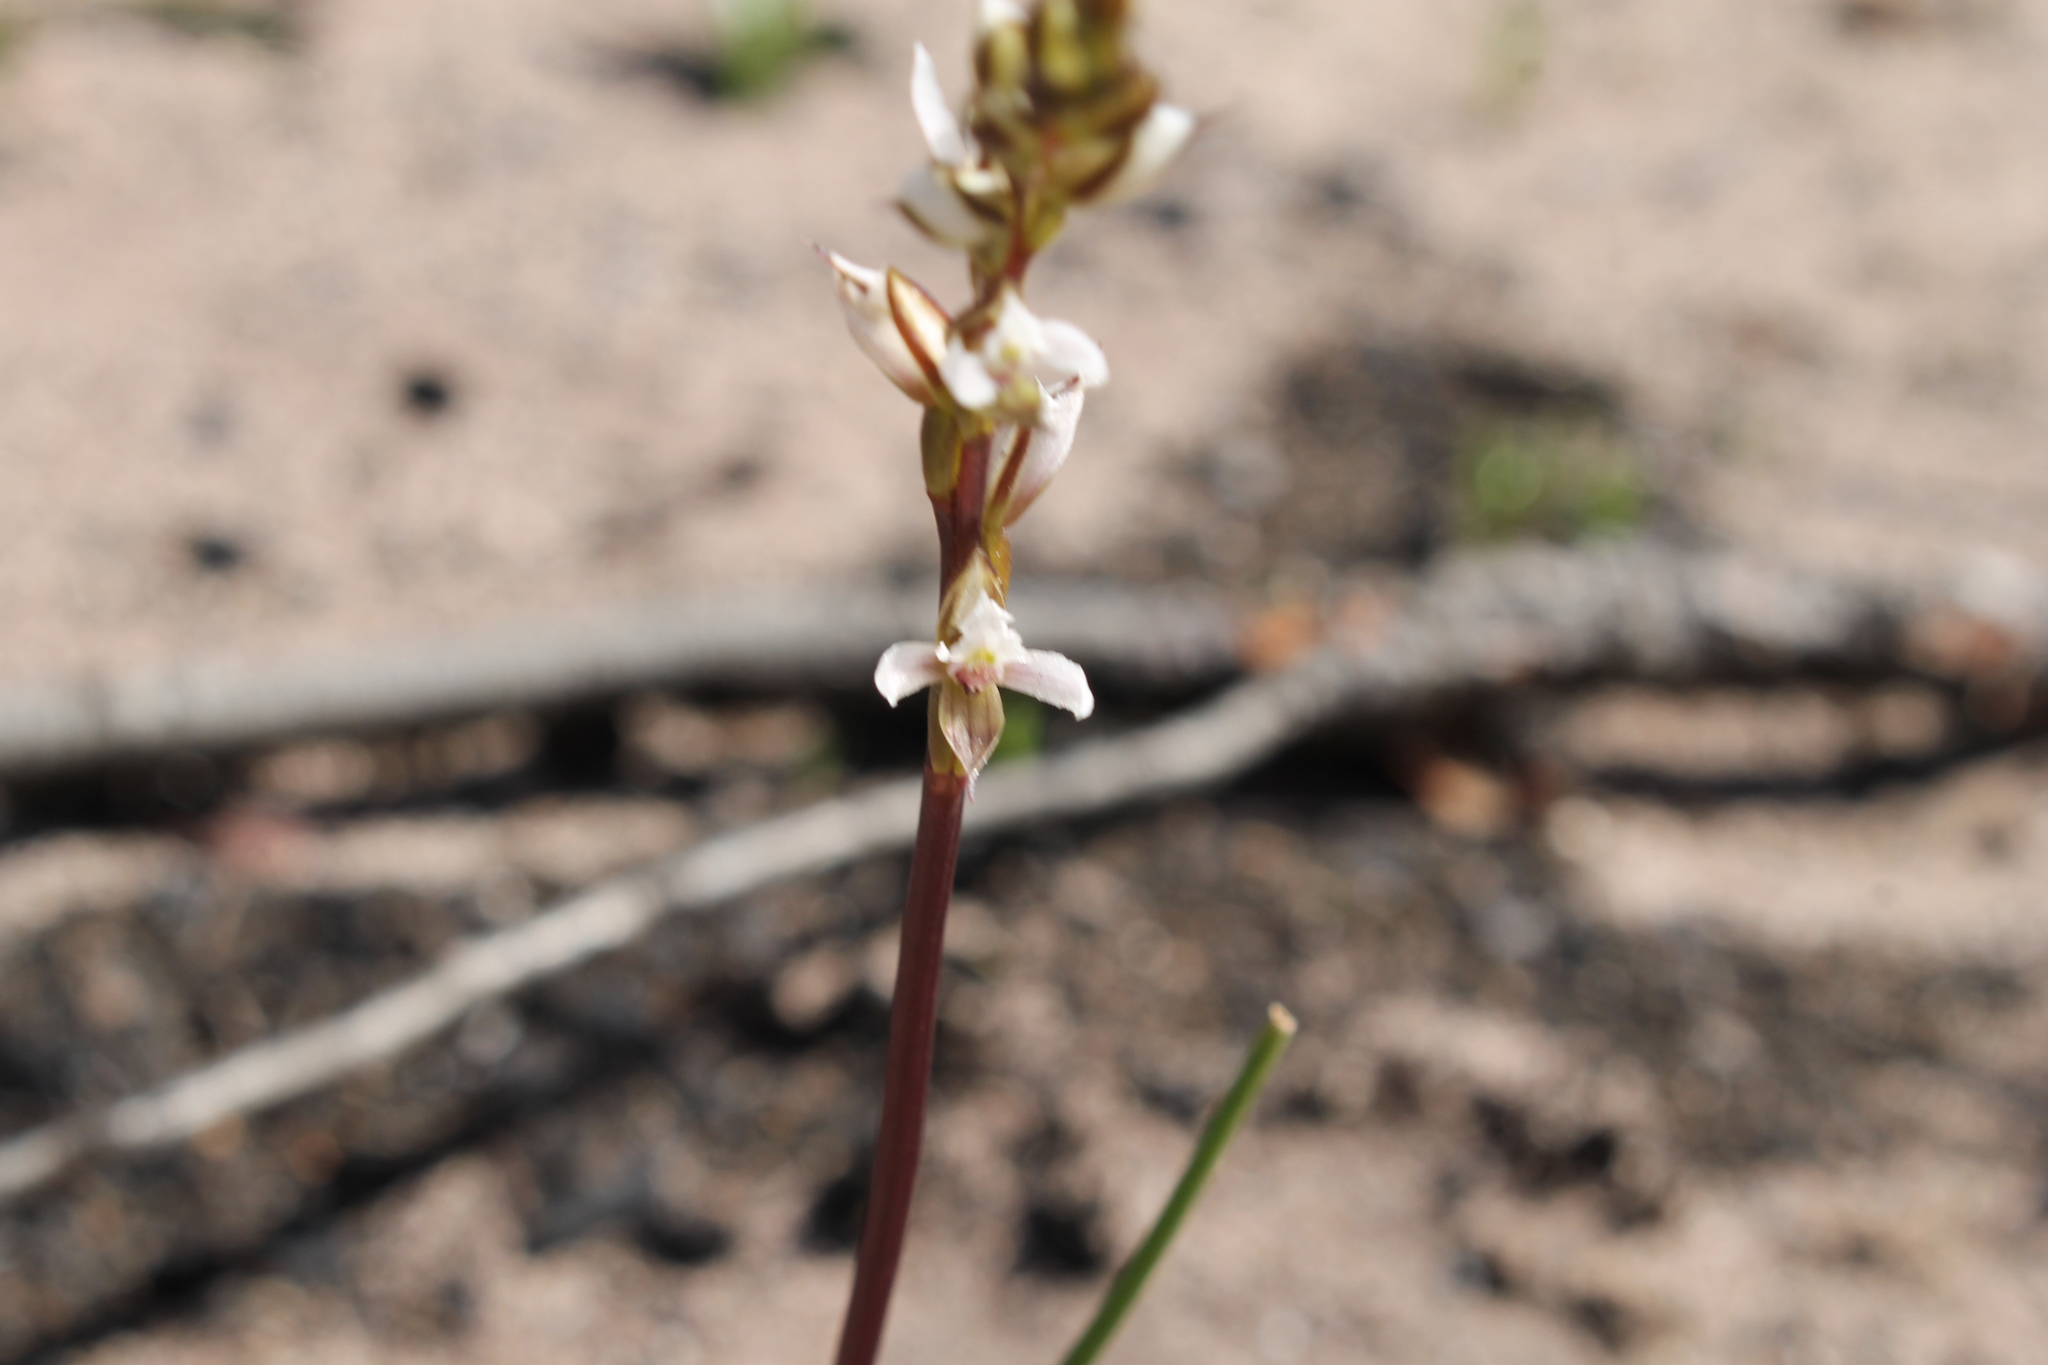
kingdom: Plantae
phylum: Tracheophyta
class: Liliopsida
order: Asparagales
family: Orchidaceae
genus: Prasophyllum
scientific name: Prasophyllum hians
